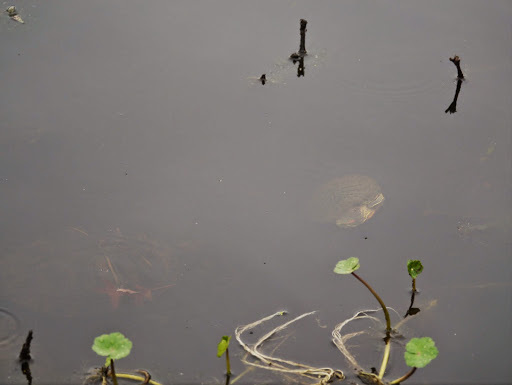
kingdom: Animalia
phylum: Chordata
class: Testudines
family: Emydidae
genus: Trachemys
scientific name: Trachemys scripta
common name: Slider
